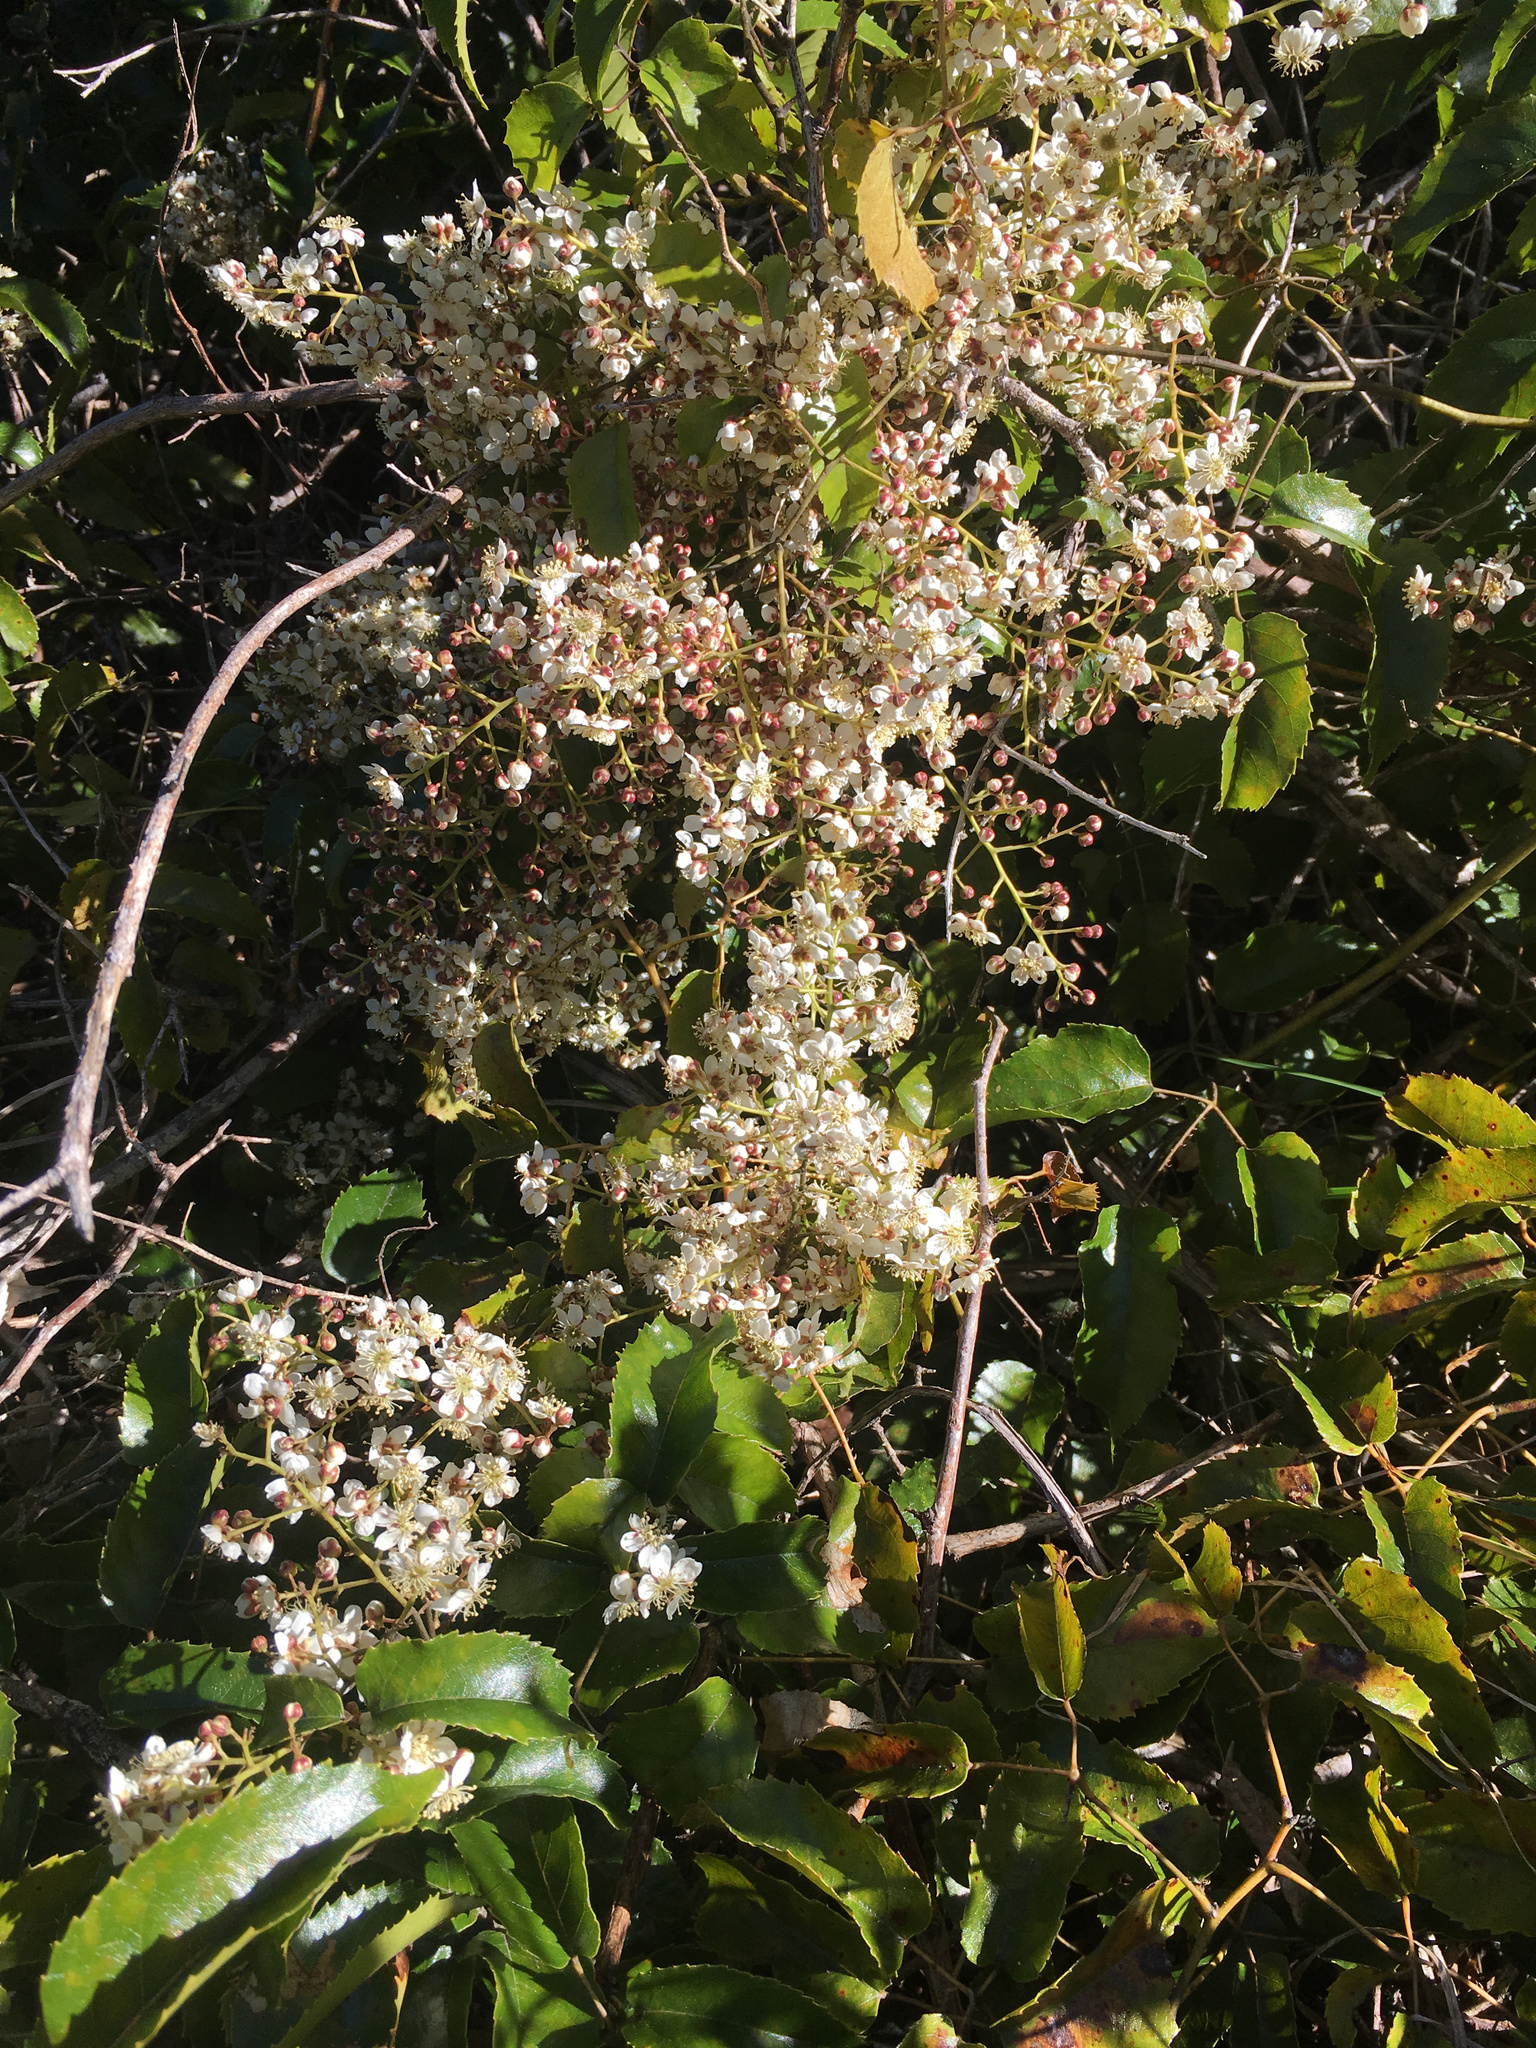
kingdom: Plantae
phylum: Tracheophyta
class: Magnoliopsida
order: Rosales
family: Rosaceae
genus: Rubus
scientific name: Rubus cissoides
